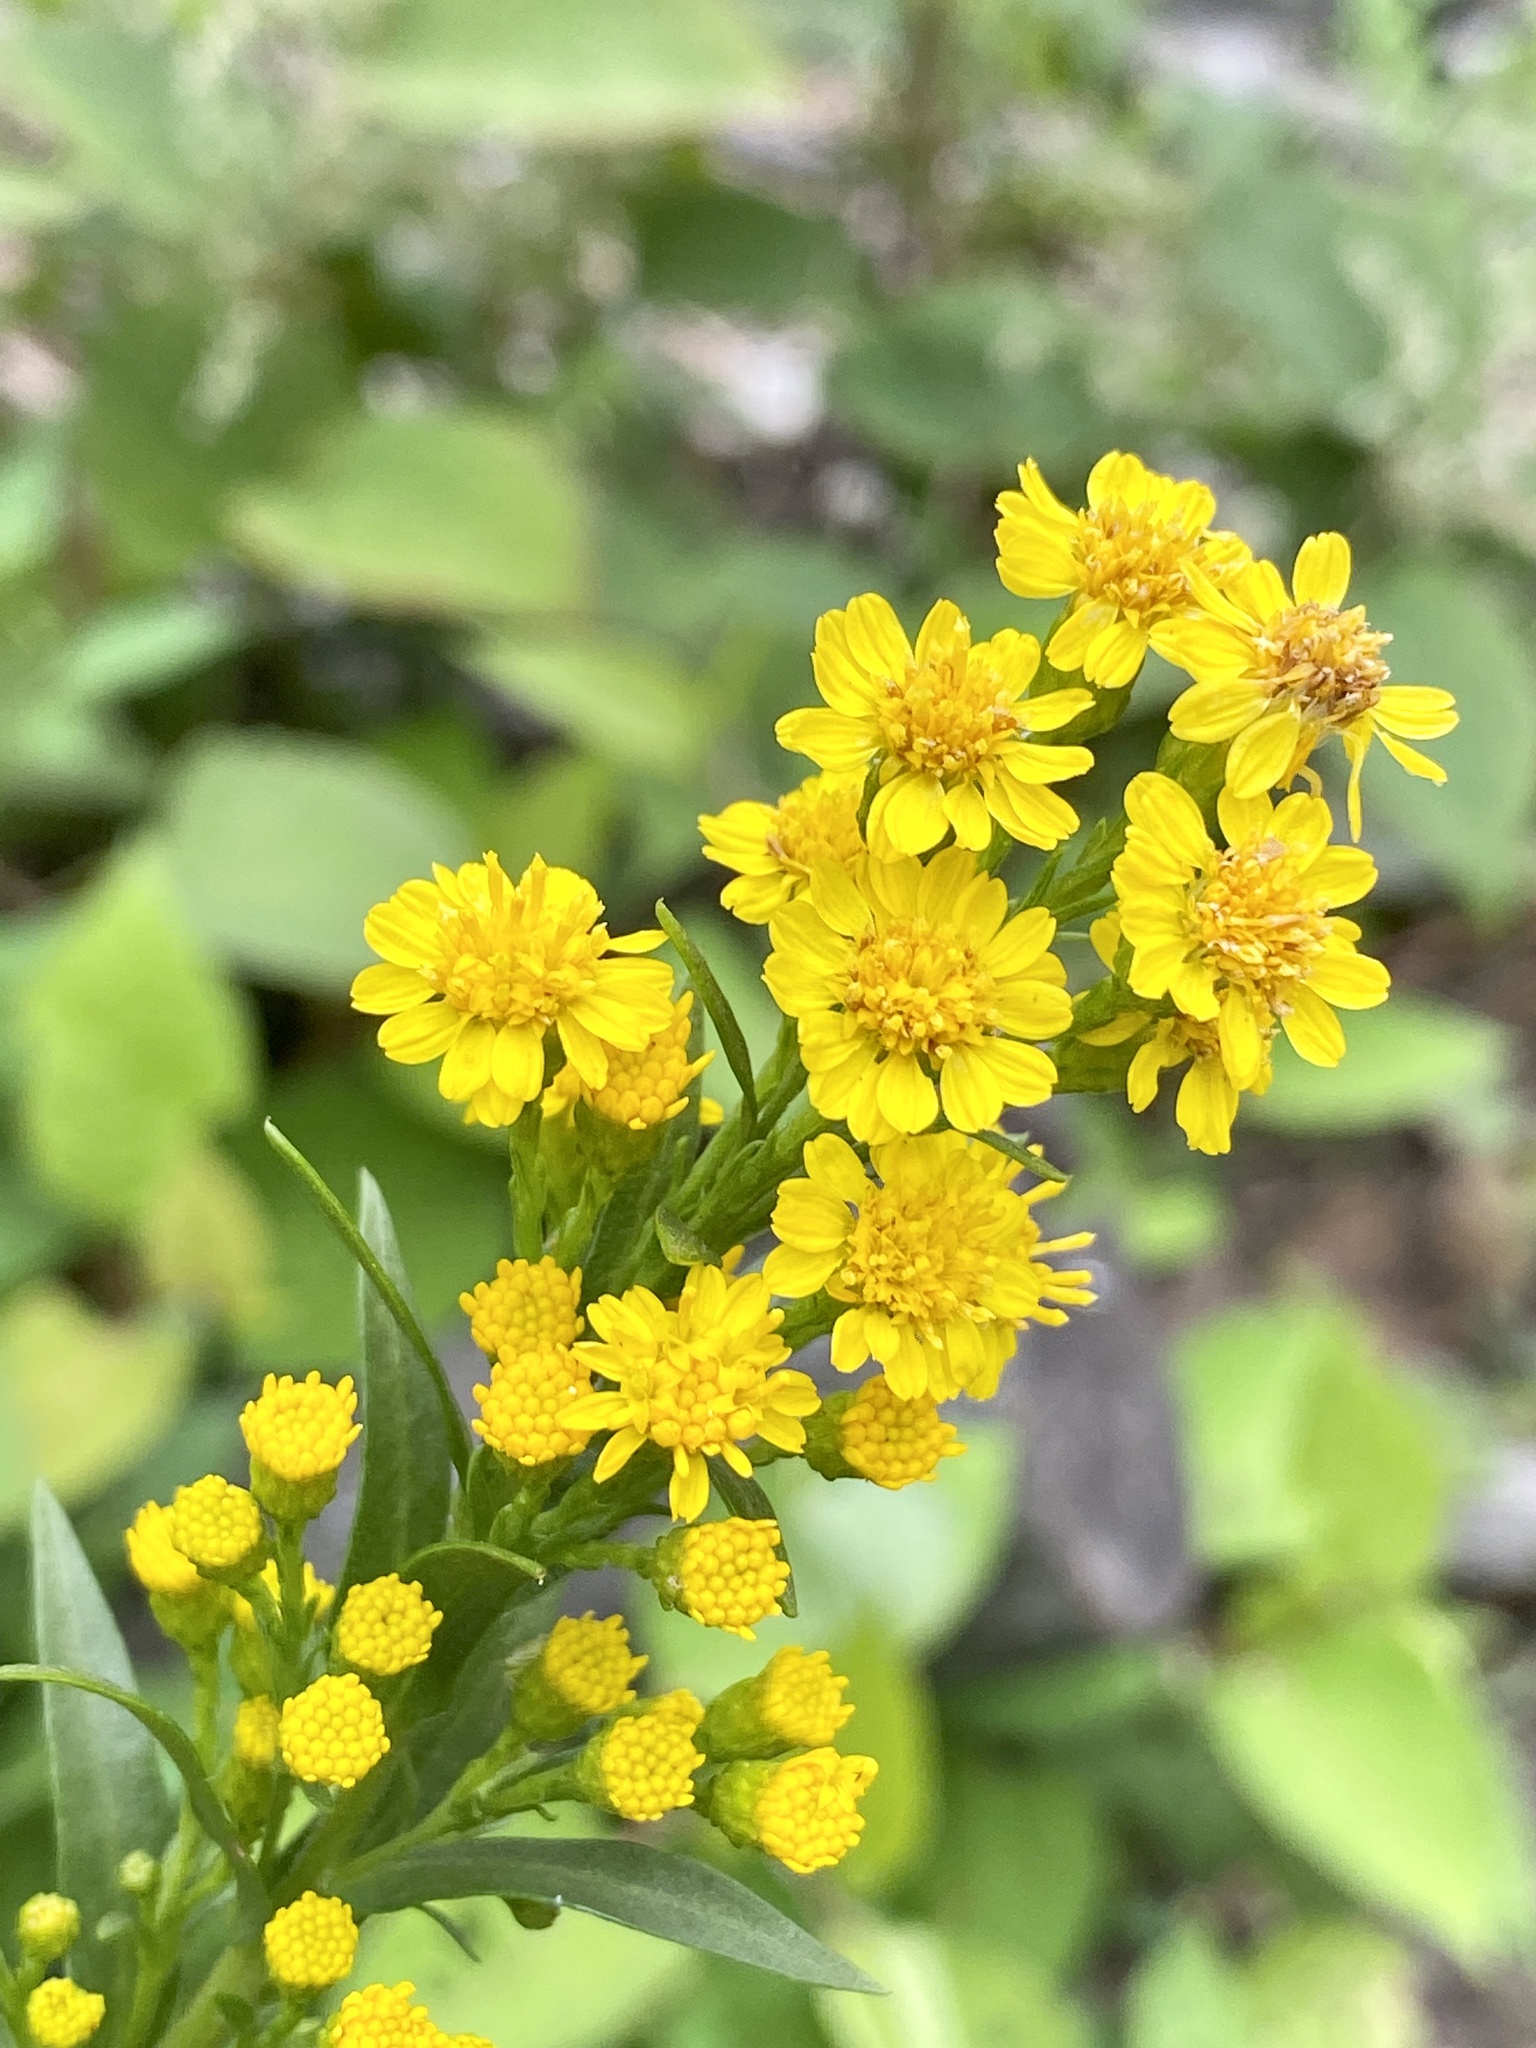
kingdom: Plantae
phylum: Tracheophyta
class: Magnoliopsida
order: Asterales
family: Asteraceae
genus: Solidago
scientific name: Solidago sempervirens
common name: Salt-marsh goldenrod
